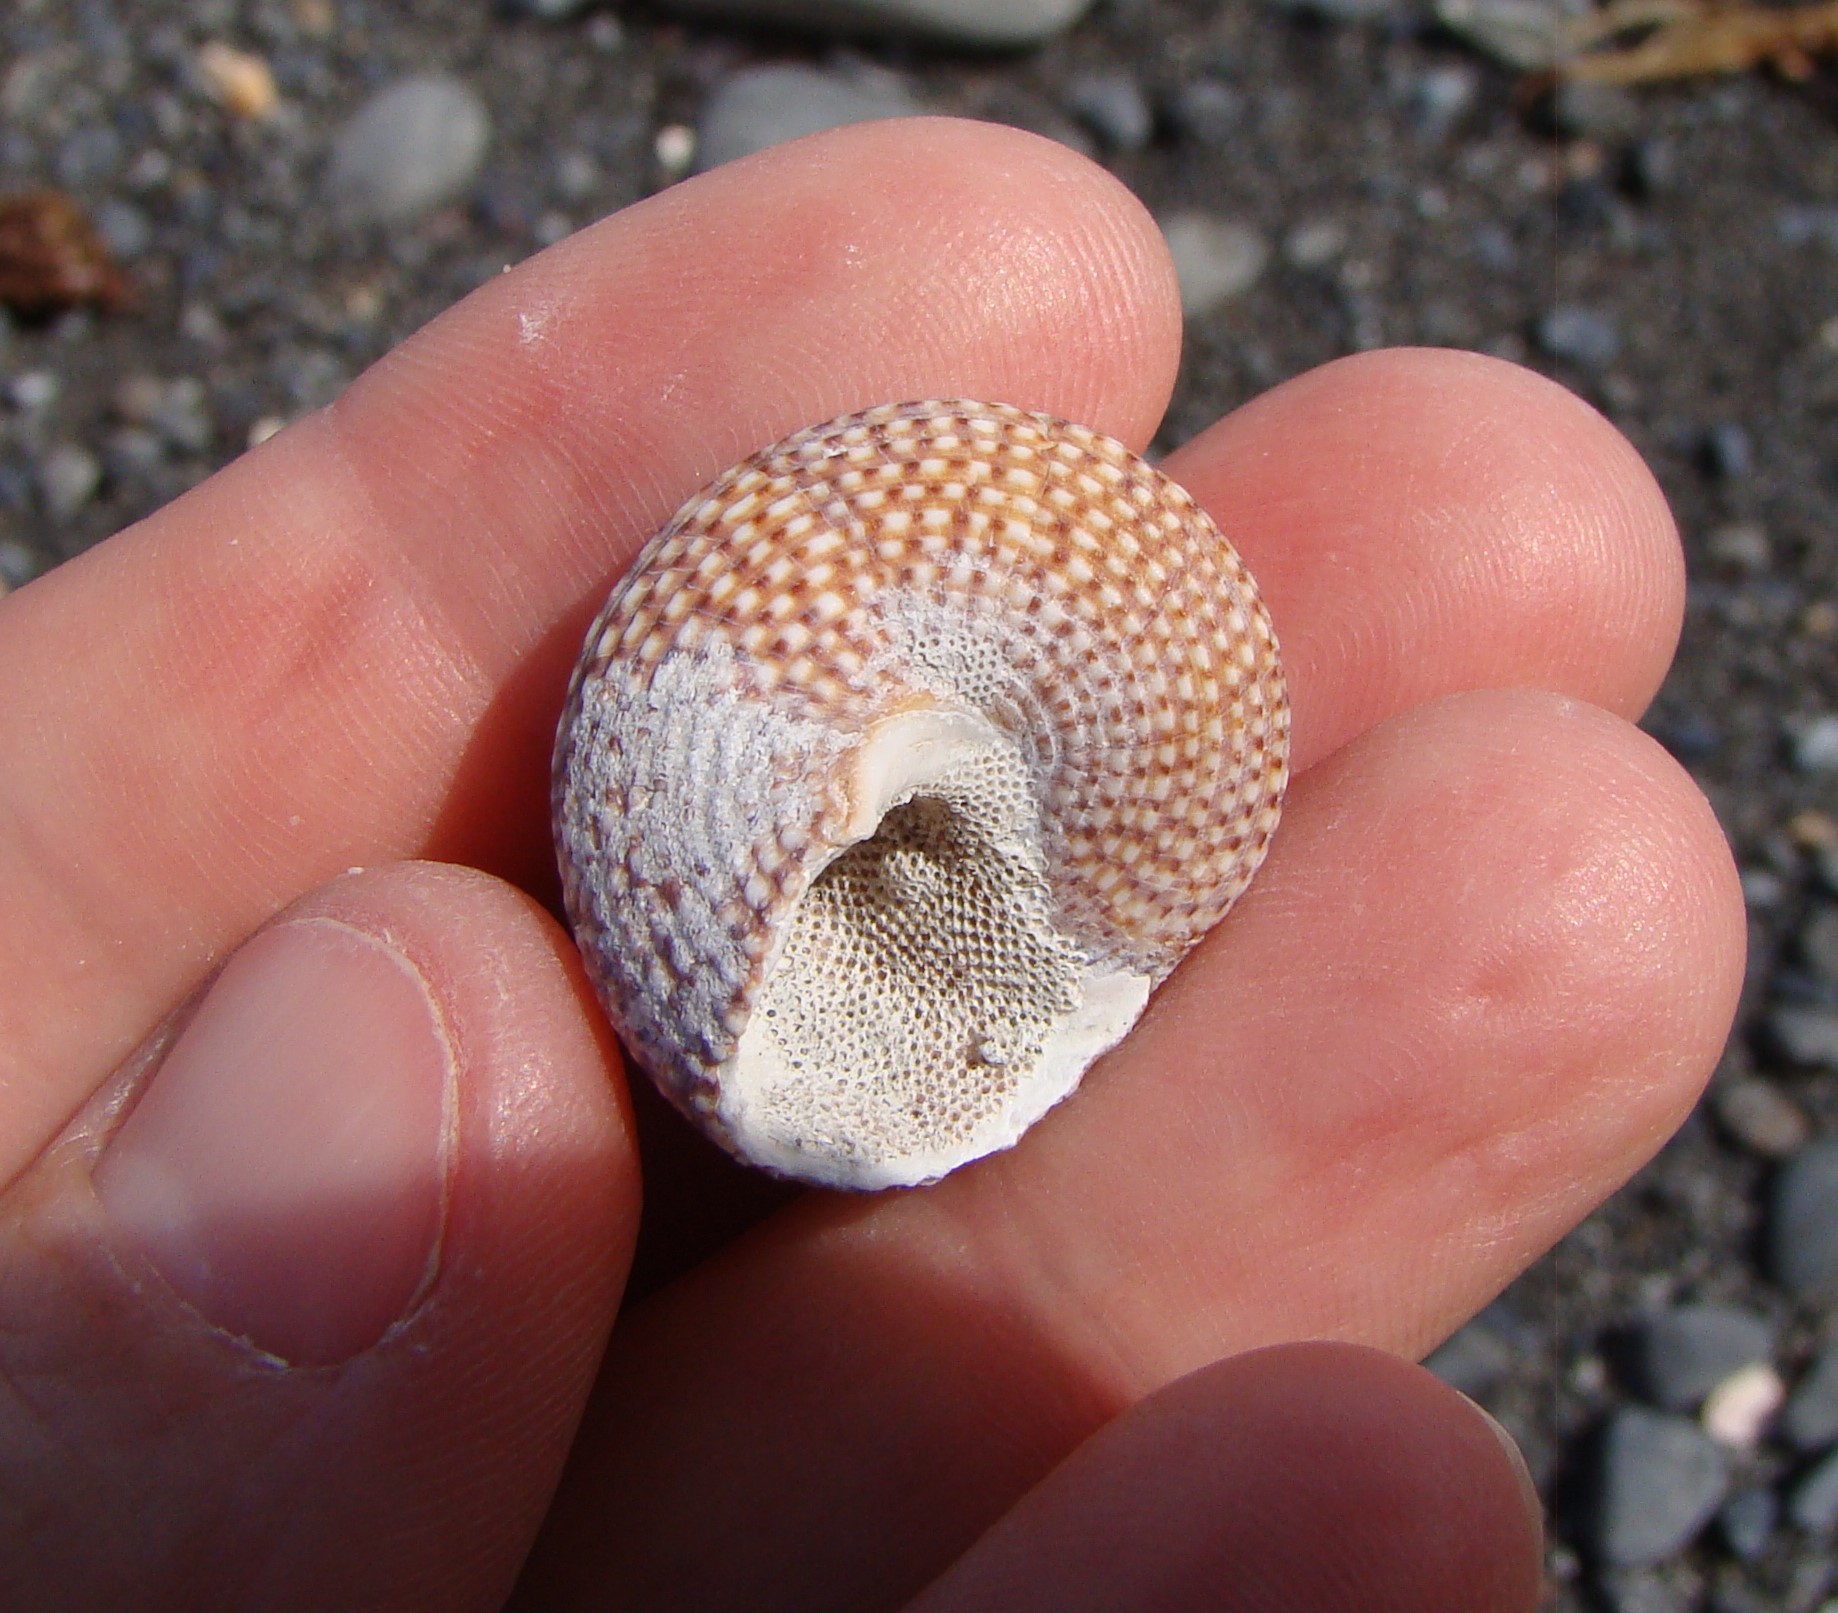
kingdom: Animalia
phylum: Mollusca
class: Gastropoda
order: Trochida
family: Calliostomatidae
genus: Maurea
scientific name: Maurea punctulata
